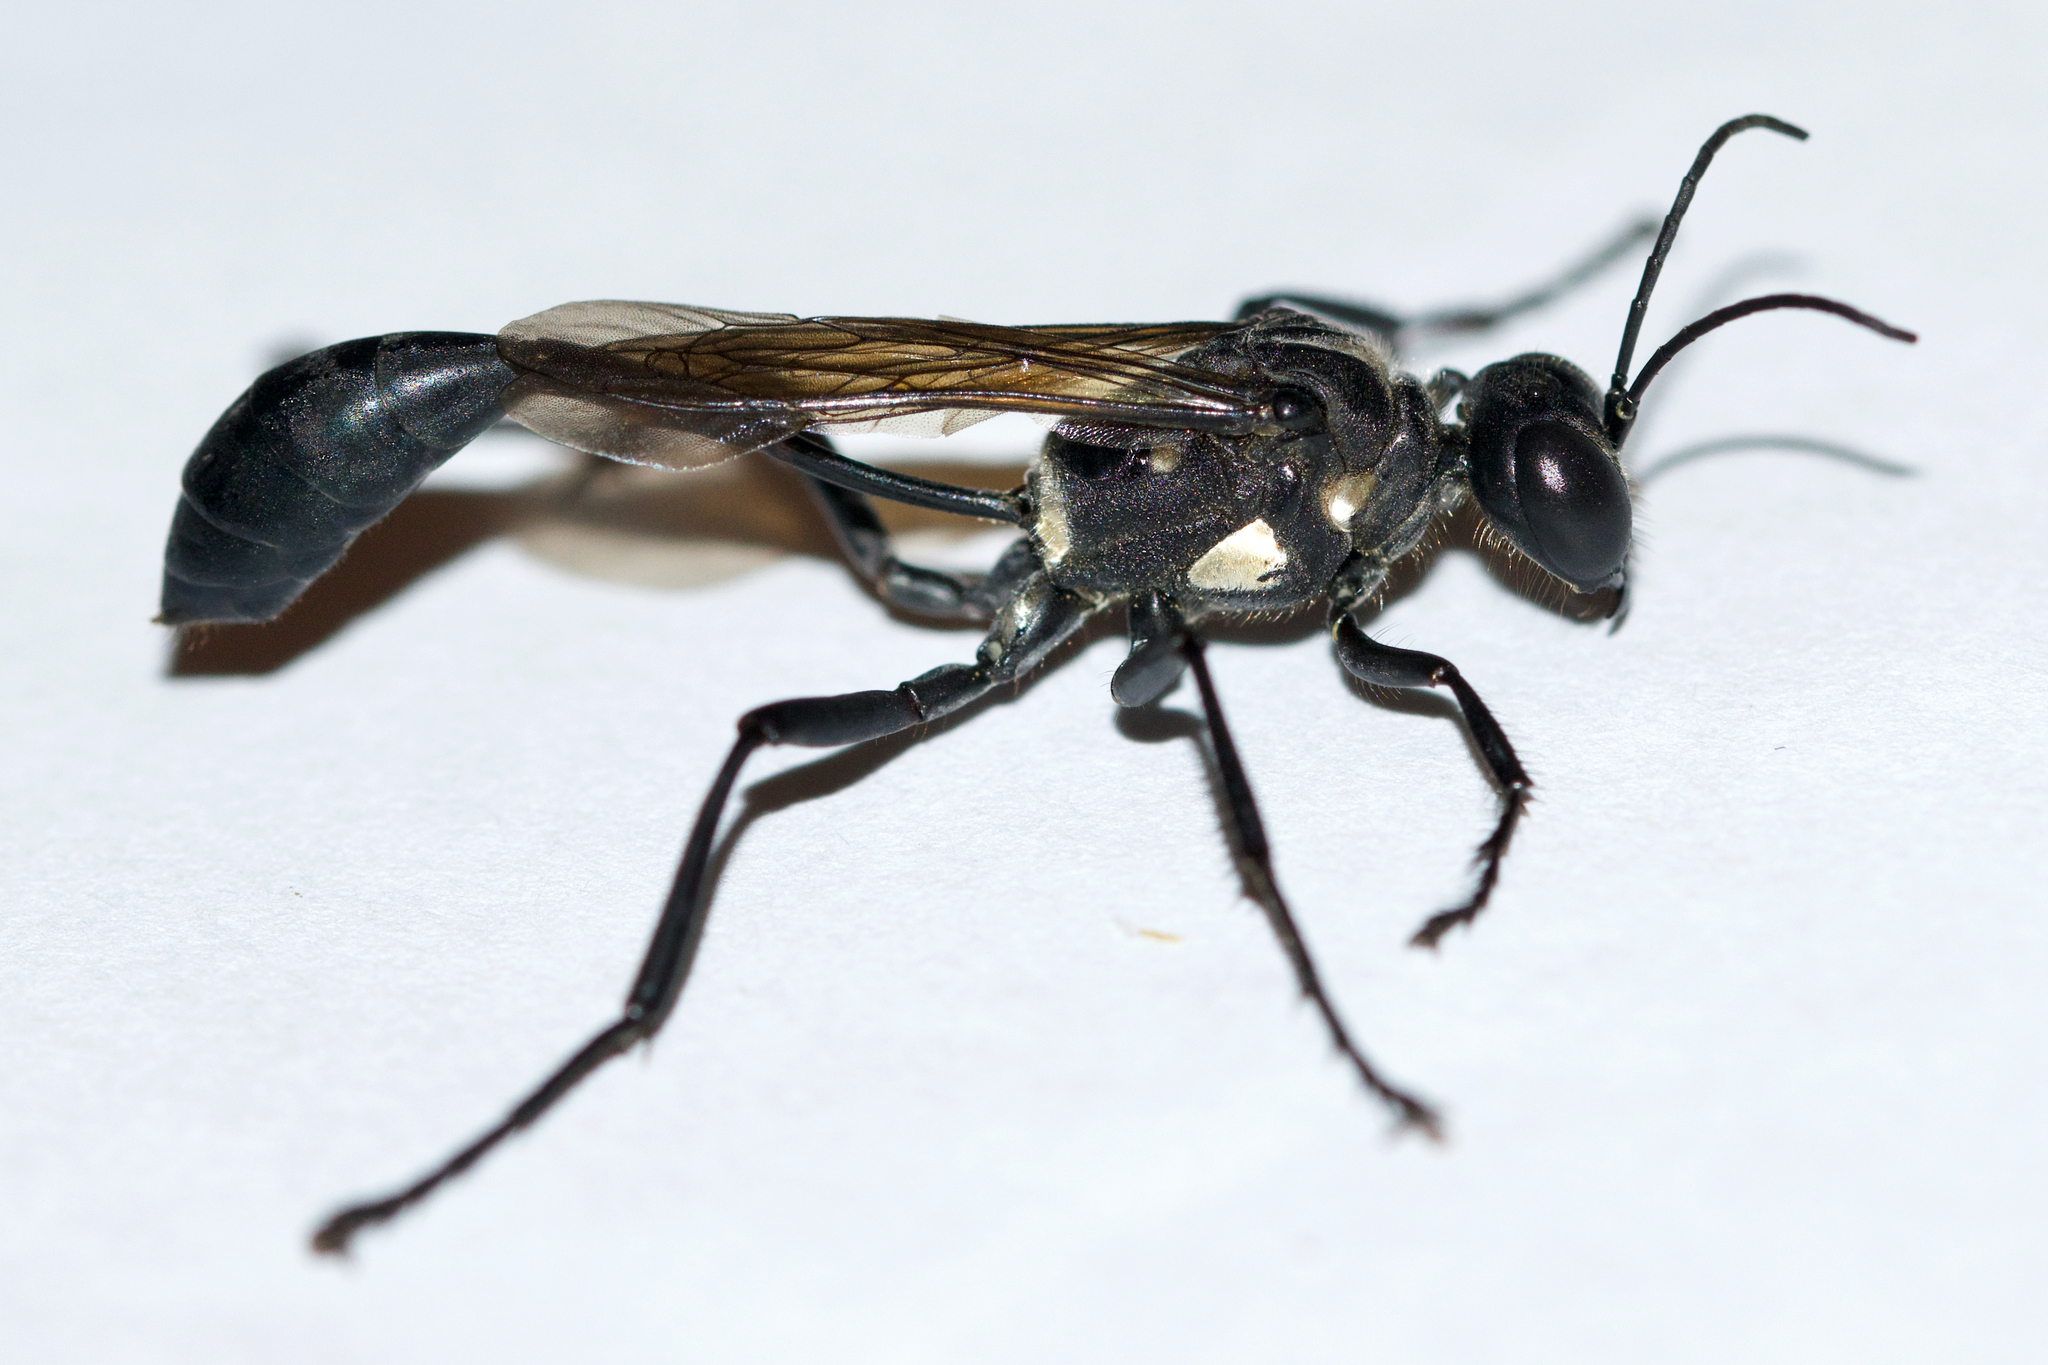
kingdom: Animalia
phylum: Arthropoda
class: Insecta
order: Hymenoptera
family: Sphecidae
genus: Eremnophila
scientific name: Eremnophila aureonotata
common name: Gold-marked thread-waisted wasp
